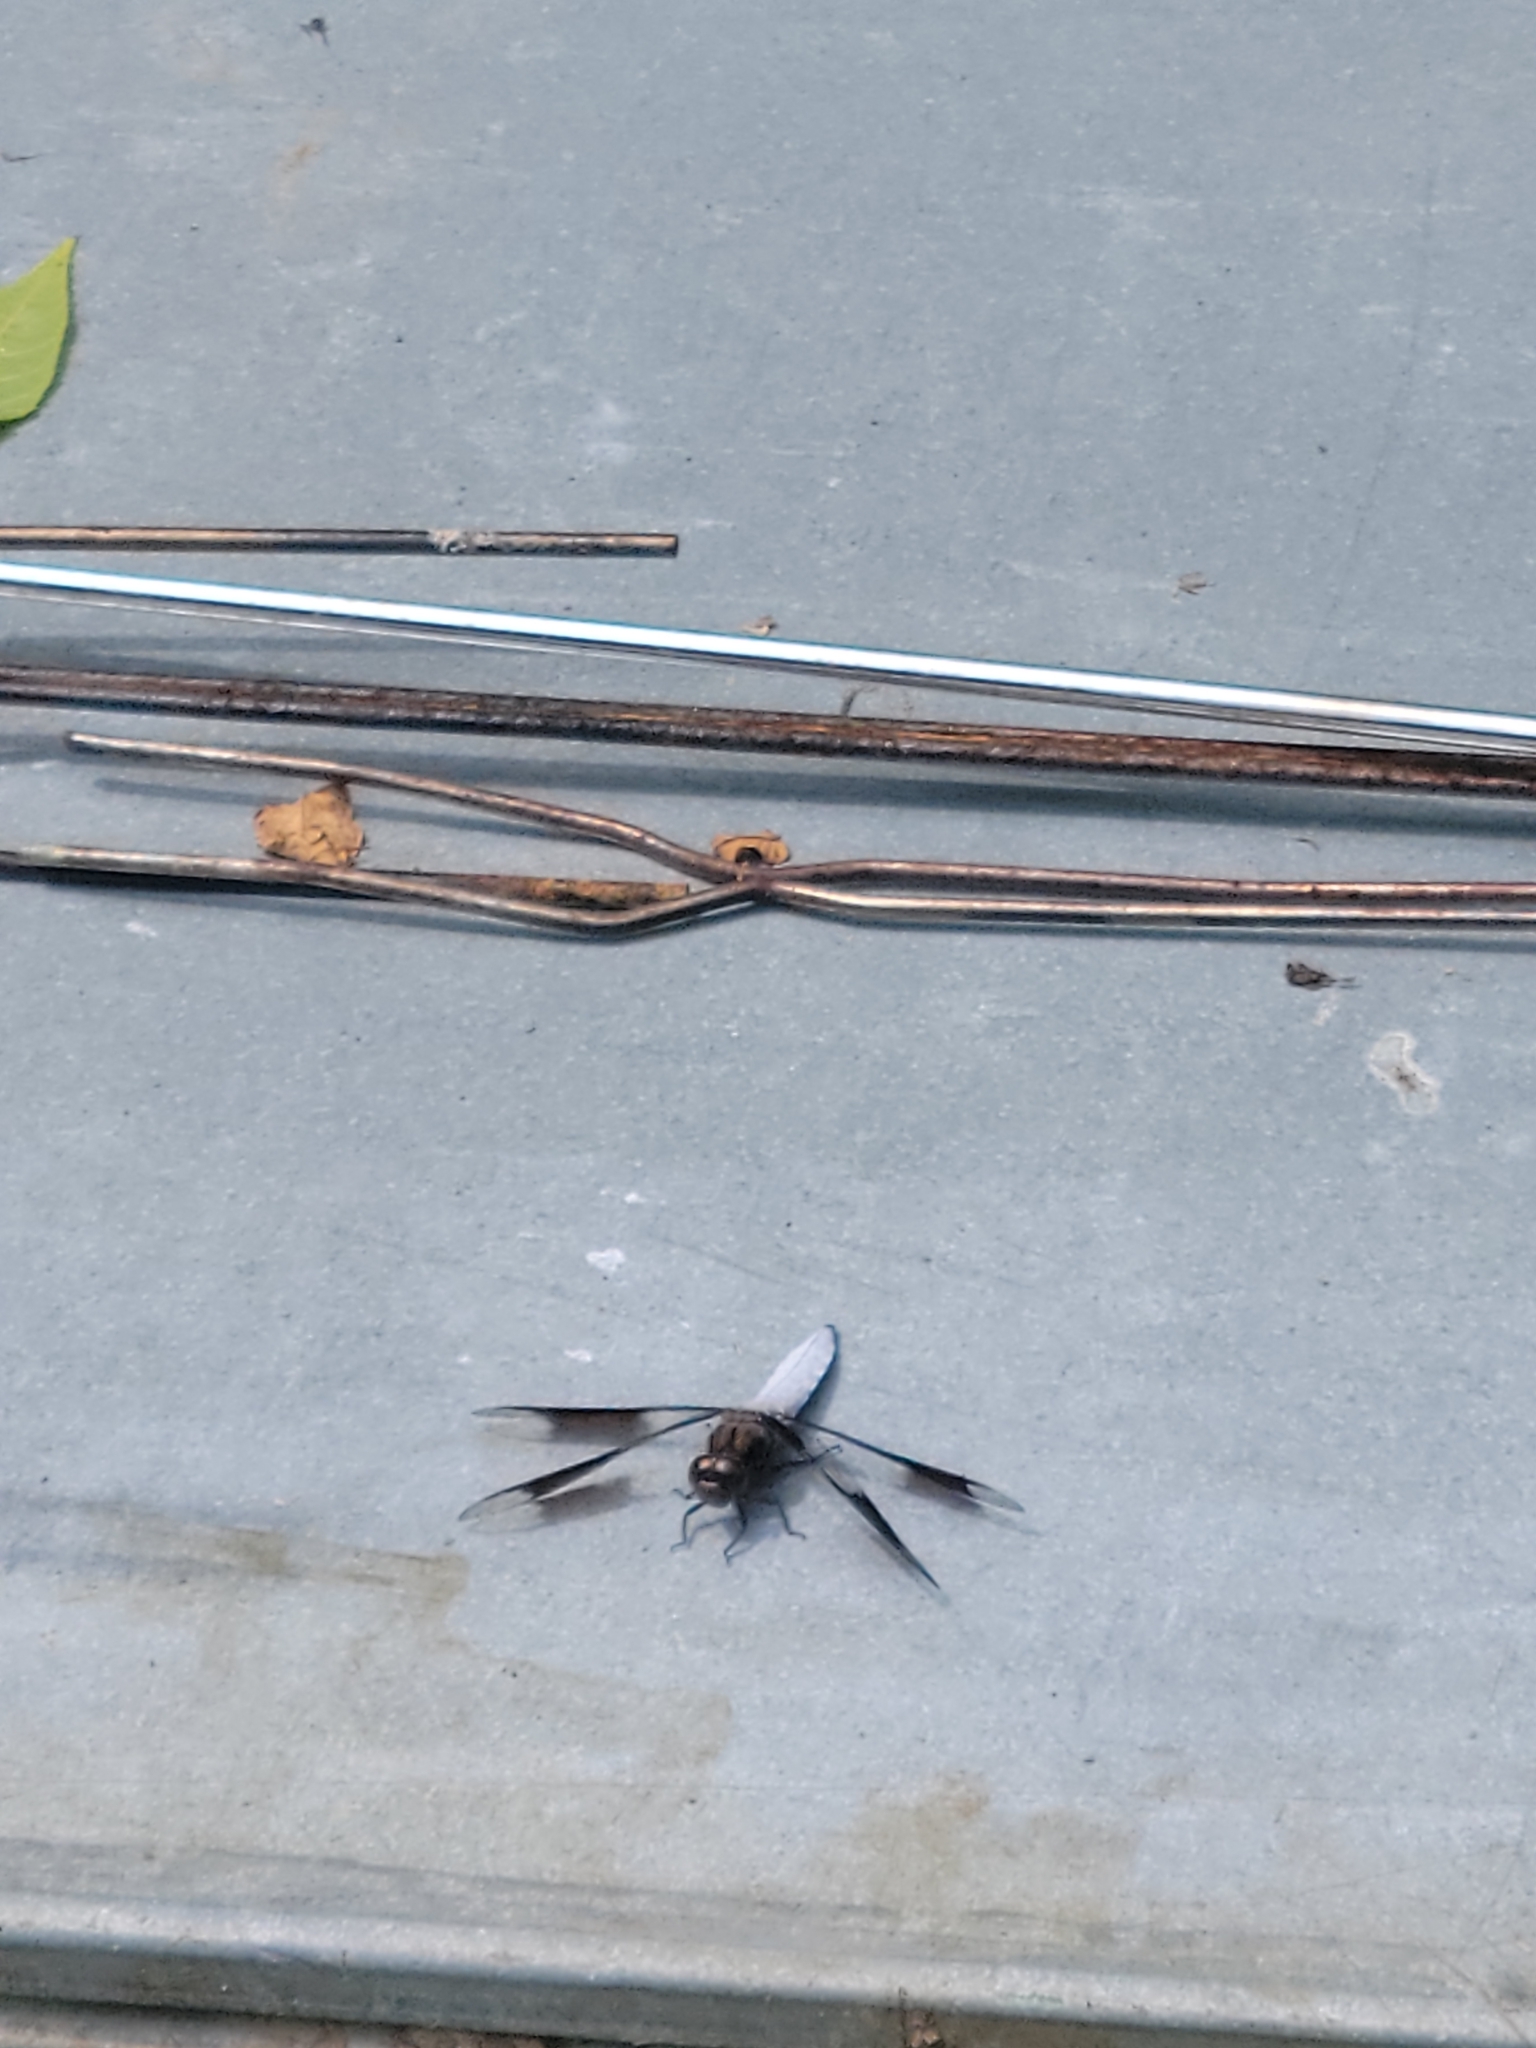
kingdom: Animalia
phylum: Arthropoda
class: Insecta
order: Odonata
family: Libellulidae
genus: Plathemis
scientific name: Plathemis lydia
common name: Common whitetail
